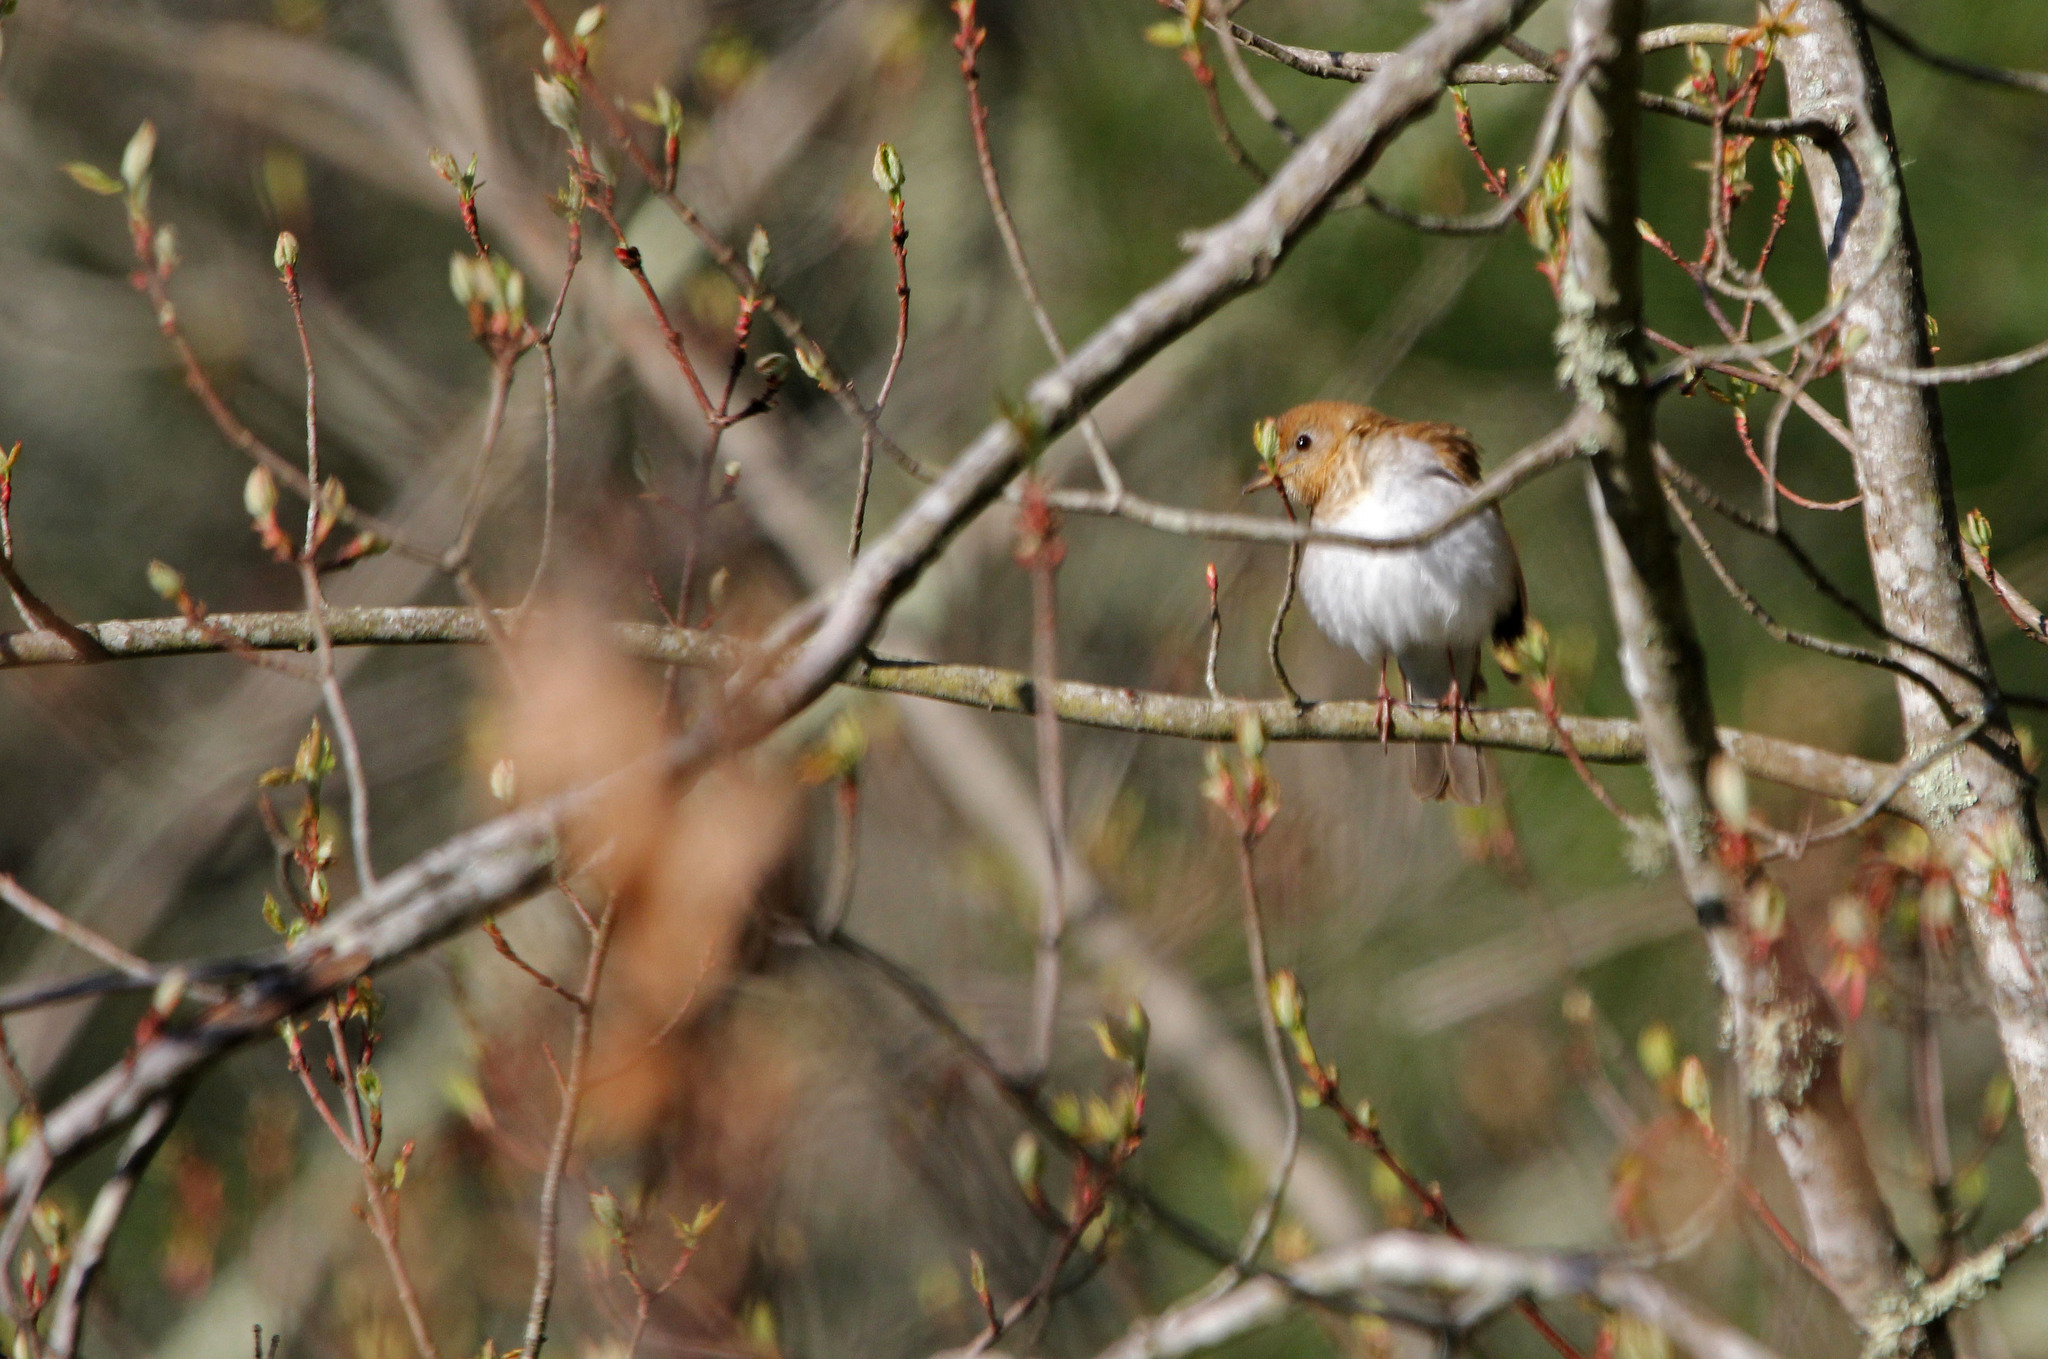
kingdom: Animalia
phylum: Chordata
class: Aves
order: Passeriformes
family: Turdidae
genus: Catharus
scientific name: Catharus fuscescens
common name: Veery
